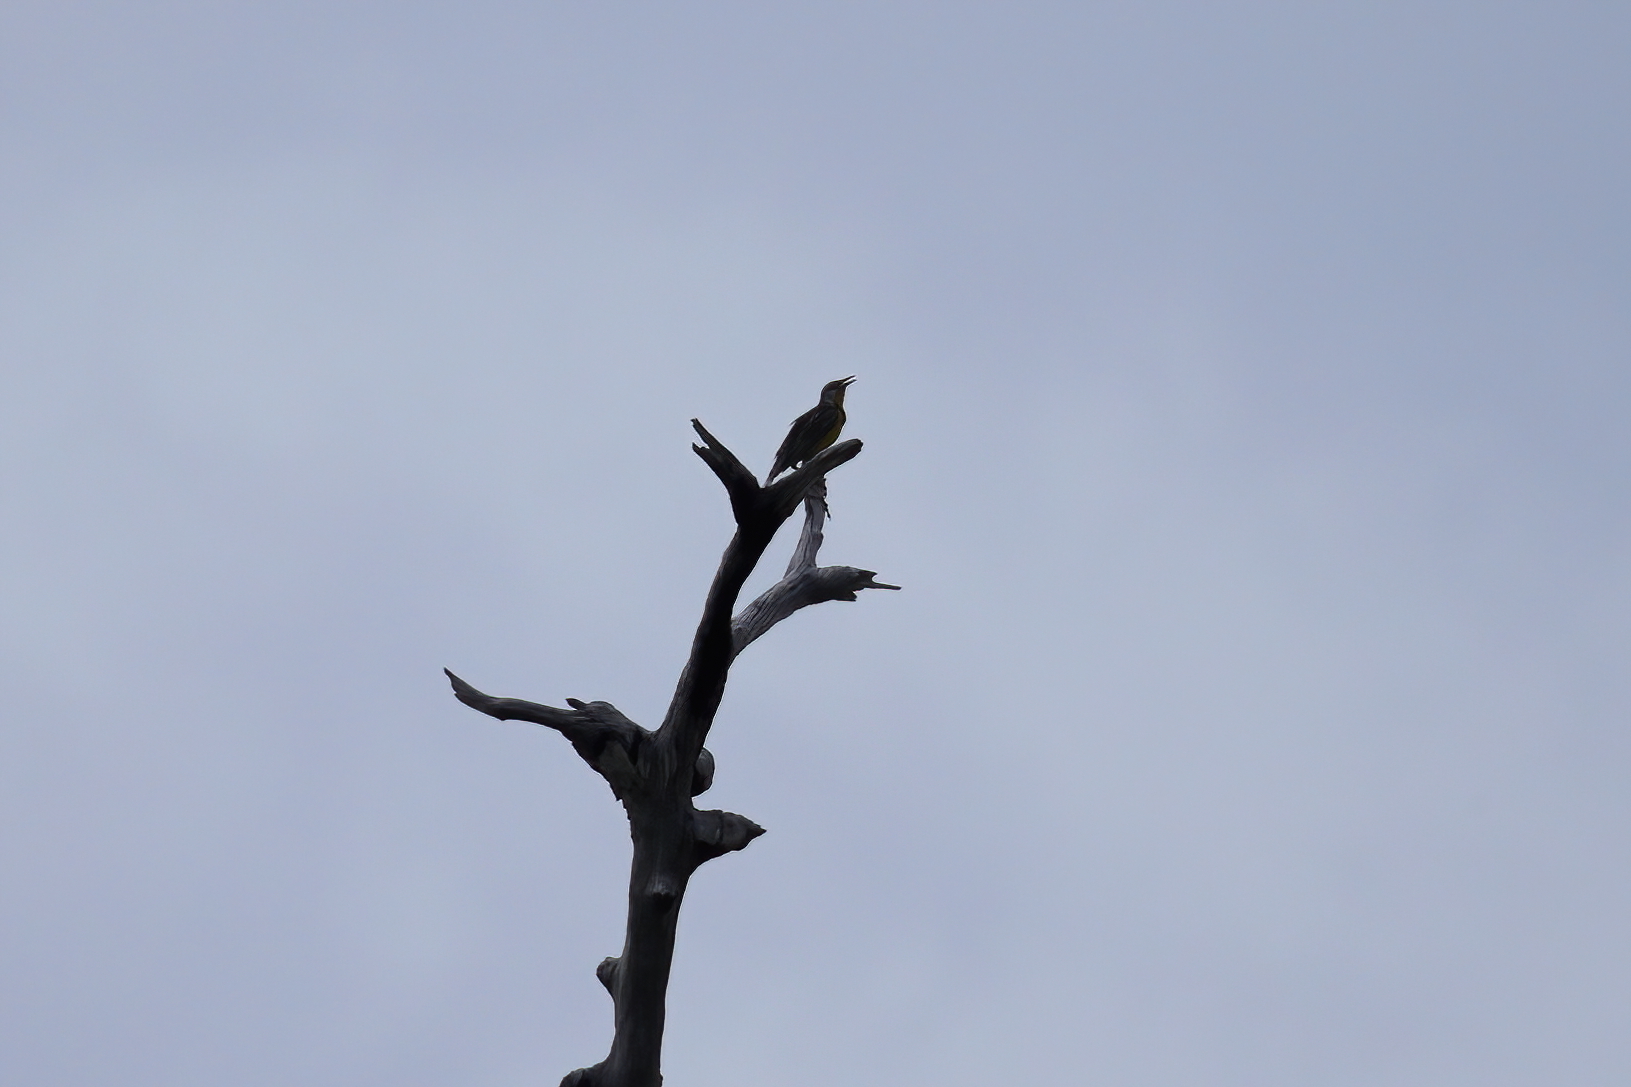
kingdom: Animalia
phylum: Chordata
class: Aves
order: Passeriformes
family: Icteridae
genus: Sturnella
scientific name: Sturnella magna
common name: Eastern meadowlark
